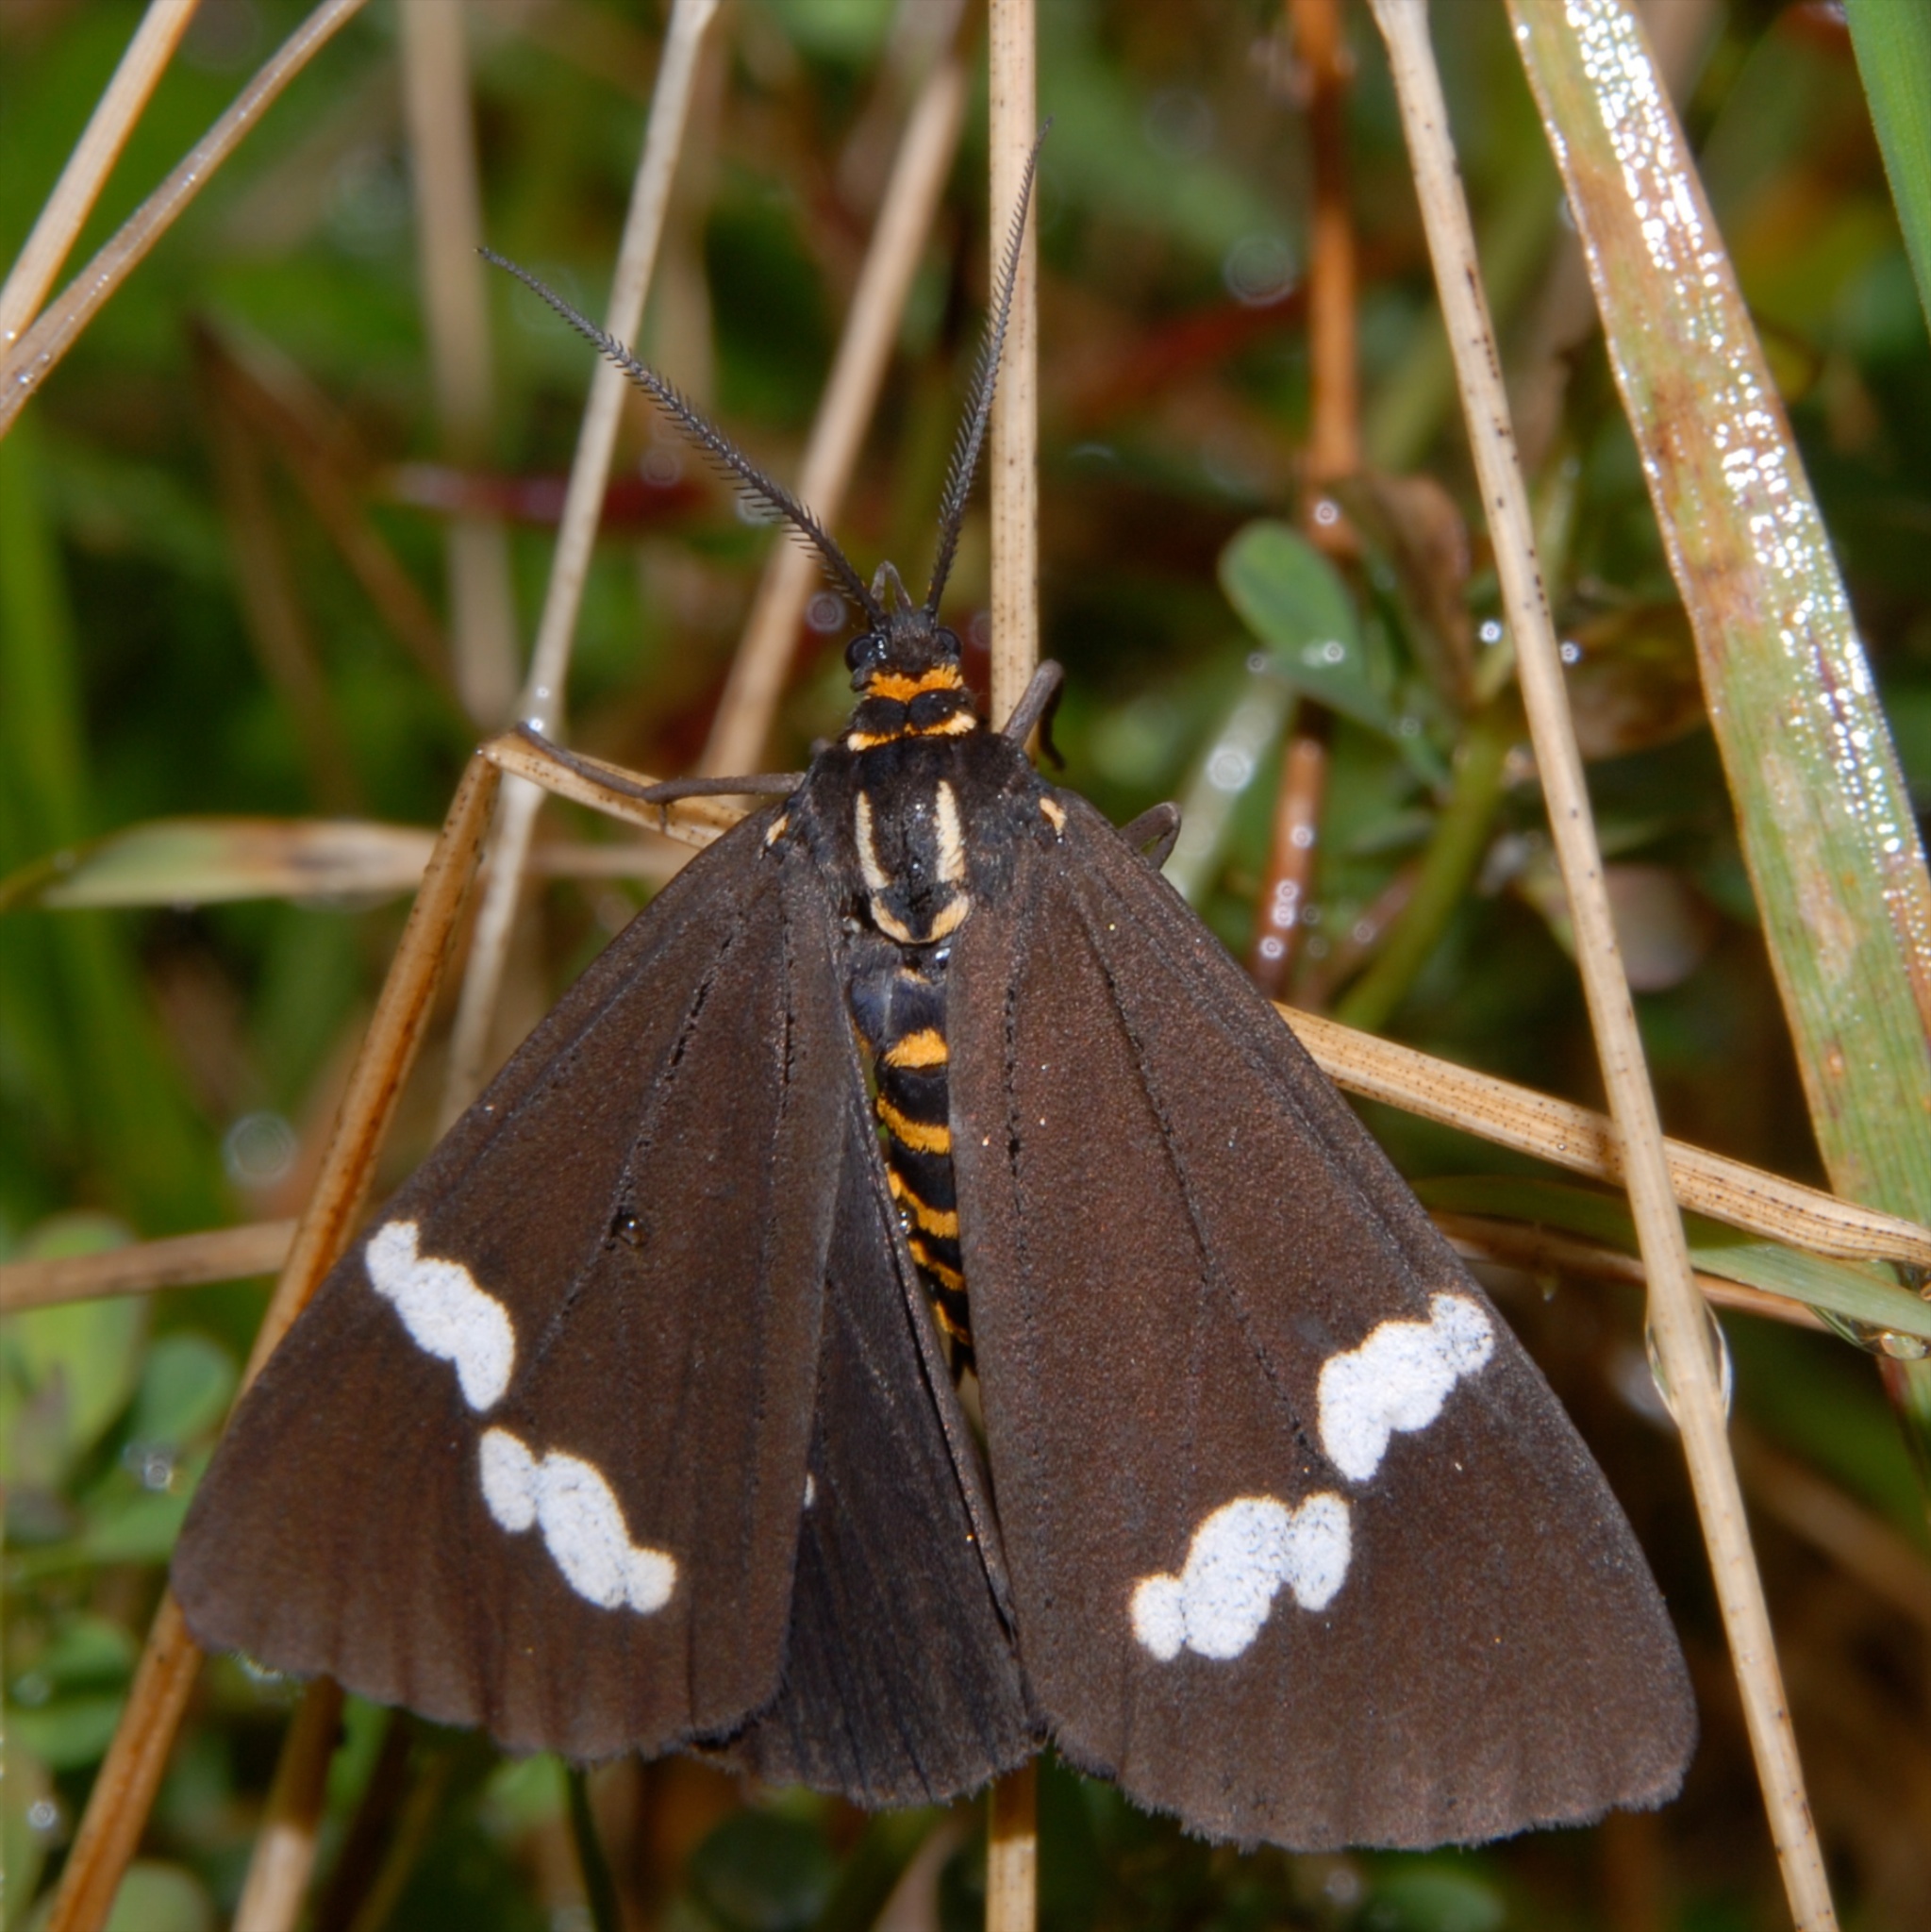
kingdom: Animalia
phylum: Arthropoda
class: Insecta
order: Lepidoptera
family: Erebidae
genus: Nyctemera
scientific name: Nyctemera annulatum
